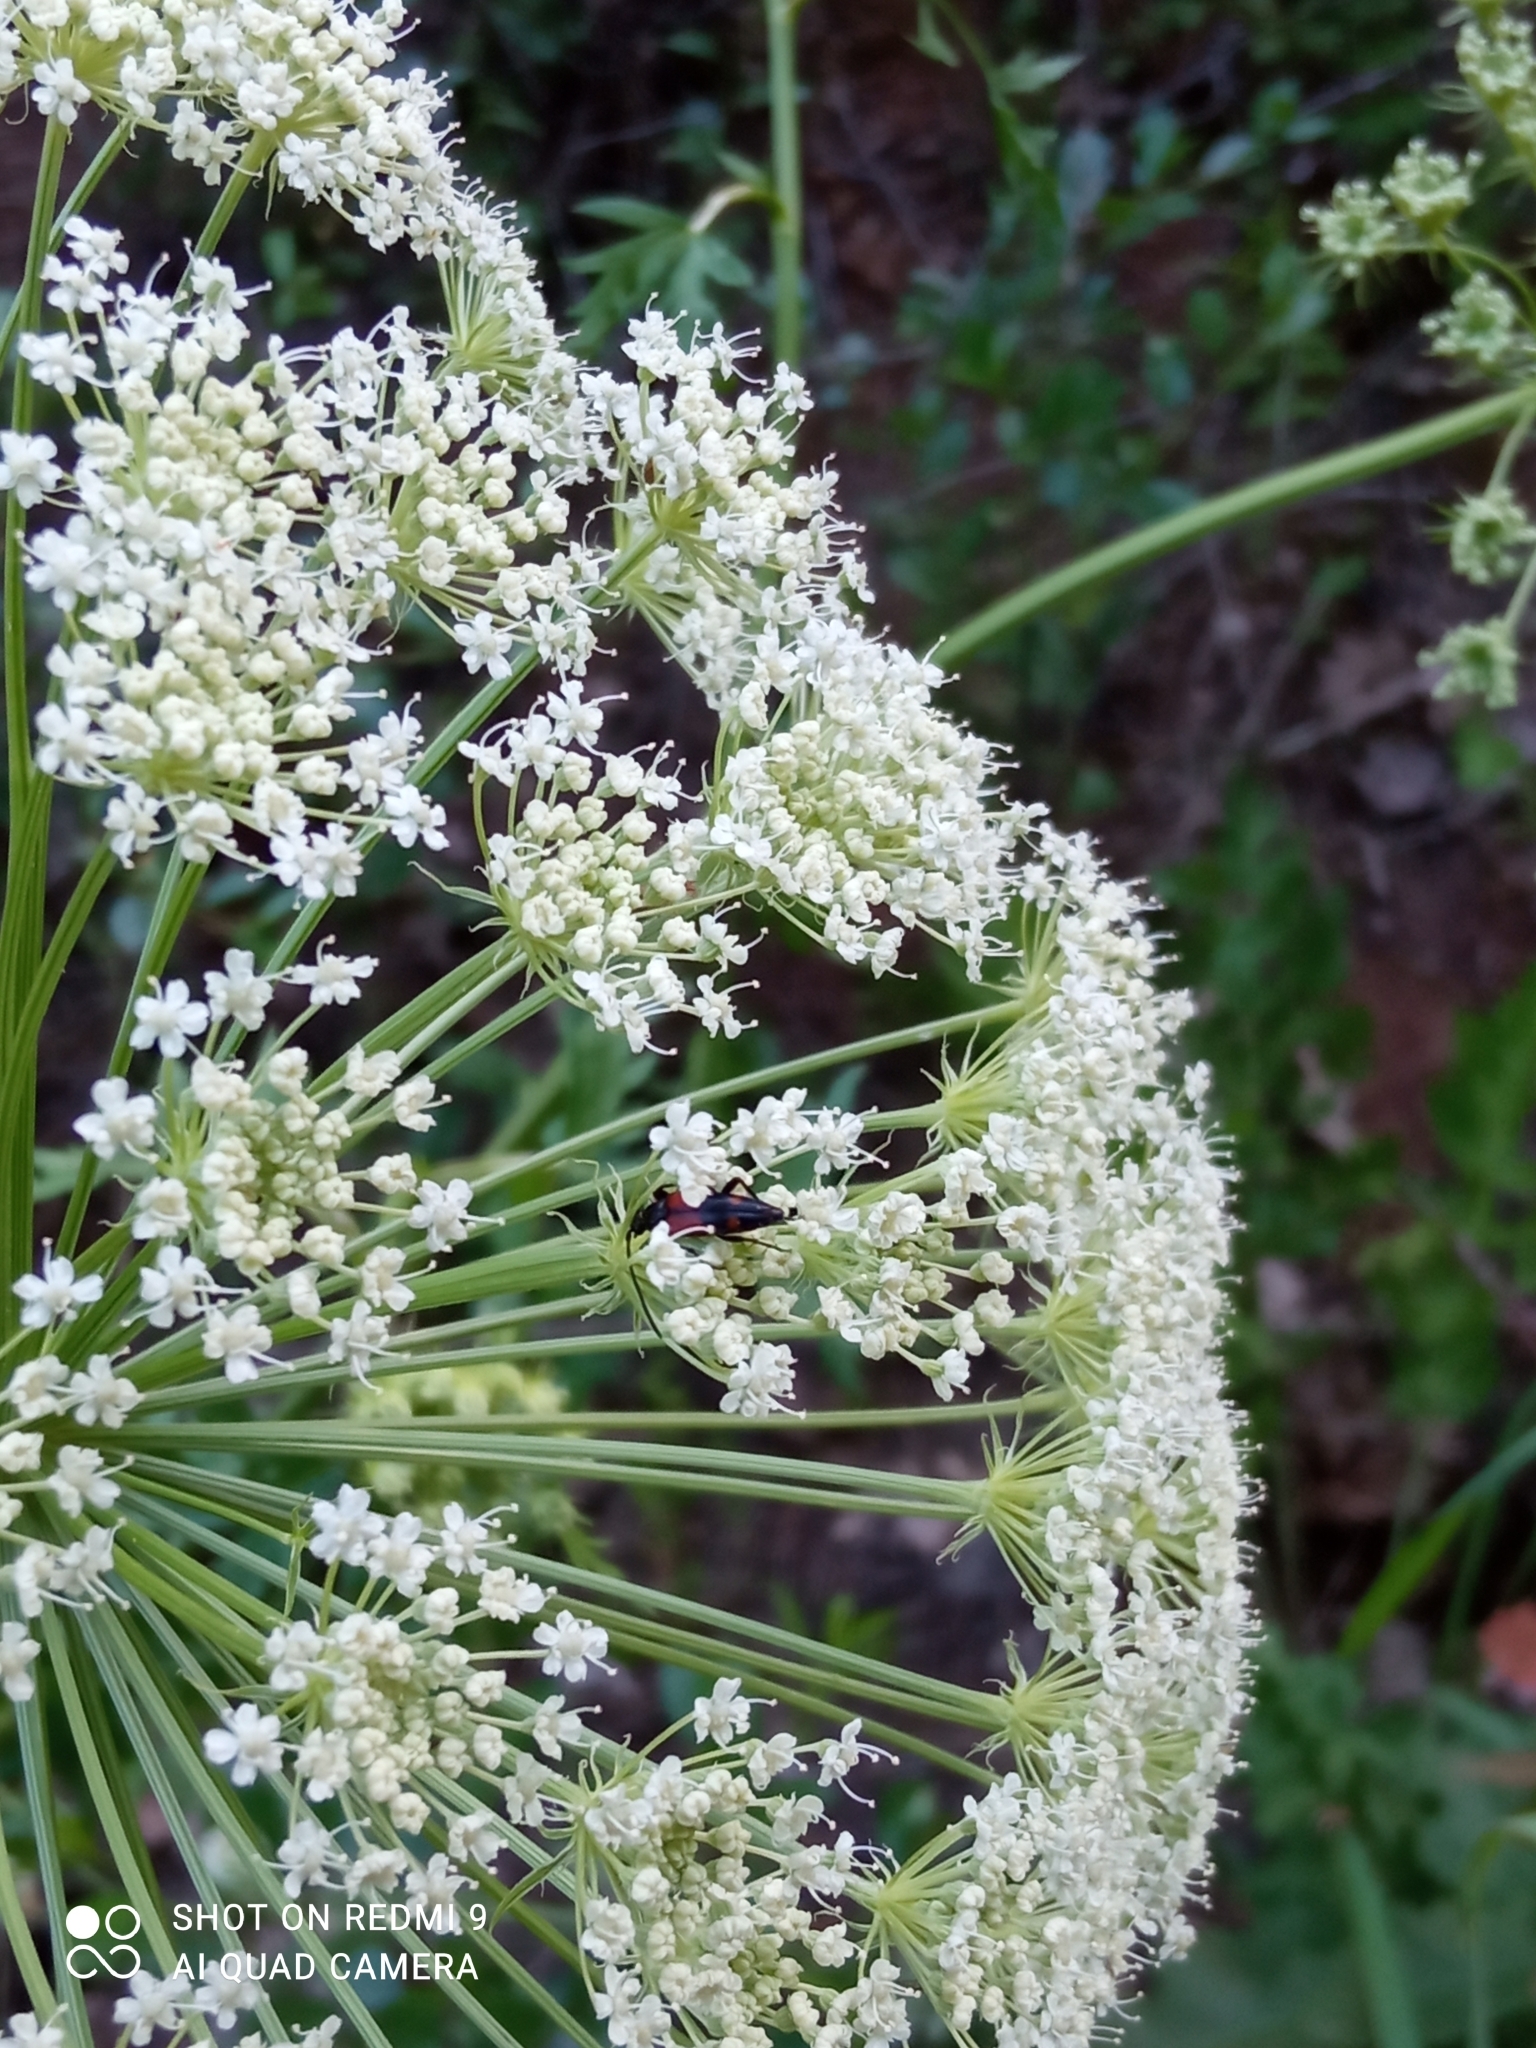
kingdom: Animalia
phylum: Arthropoda
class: Insecta
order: Coleoptera
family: Cerambycidae
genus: Stenurella
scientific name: Stenurella bifasciata
